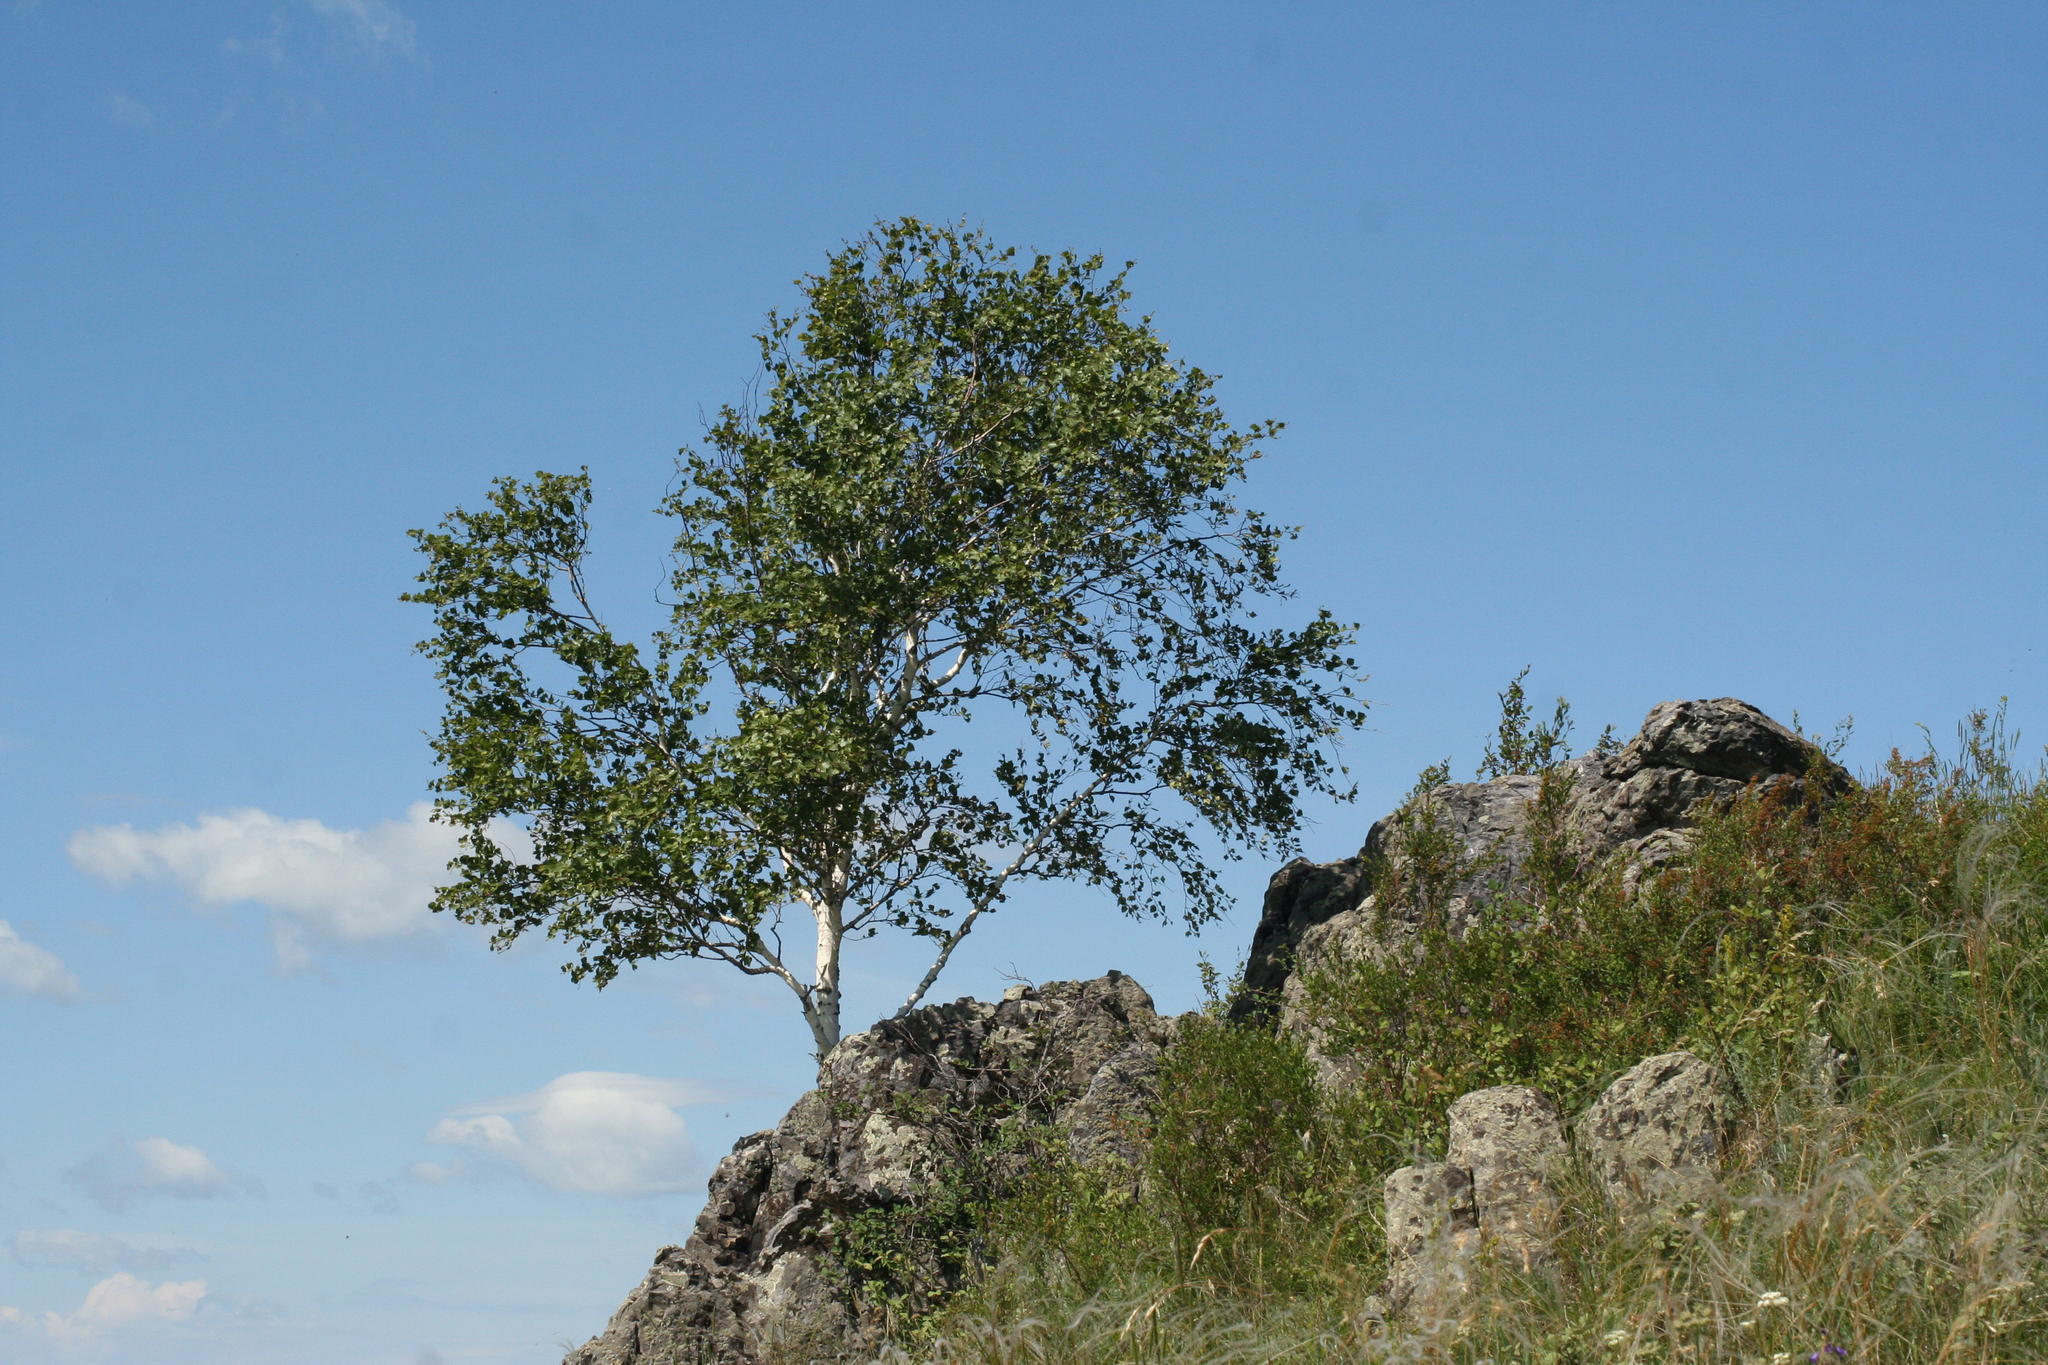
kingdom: Plantae
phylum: Tracheophyta
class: Magnoliopsida
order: Fagales
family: Betulaceae
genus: Betula
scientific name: Betula pendula
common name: Silver birch
